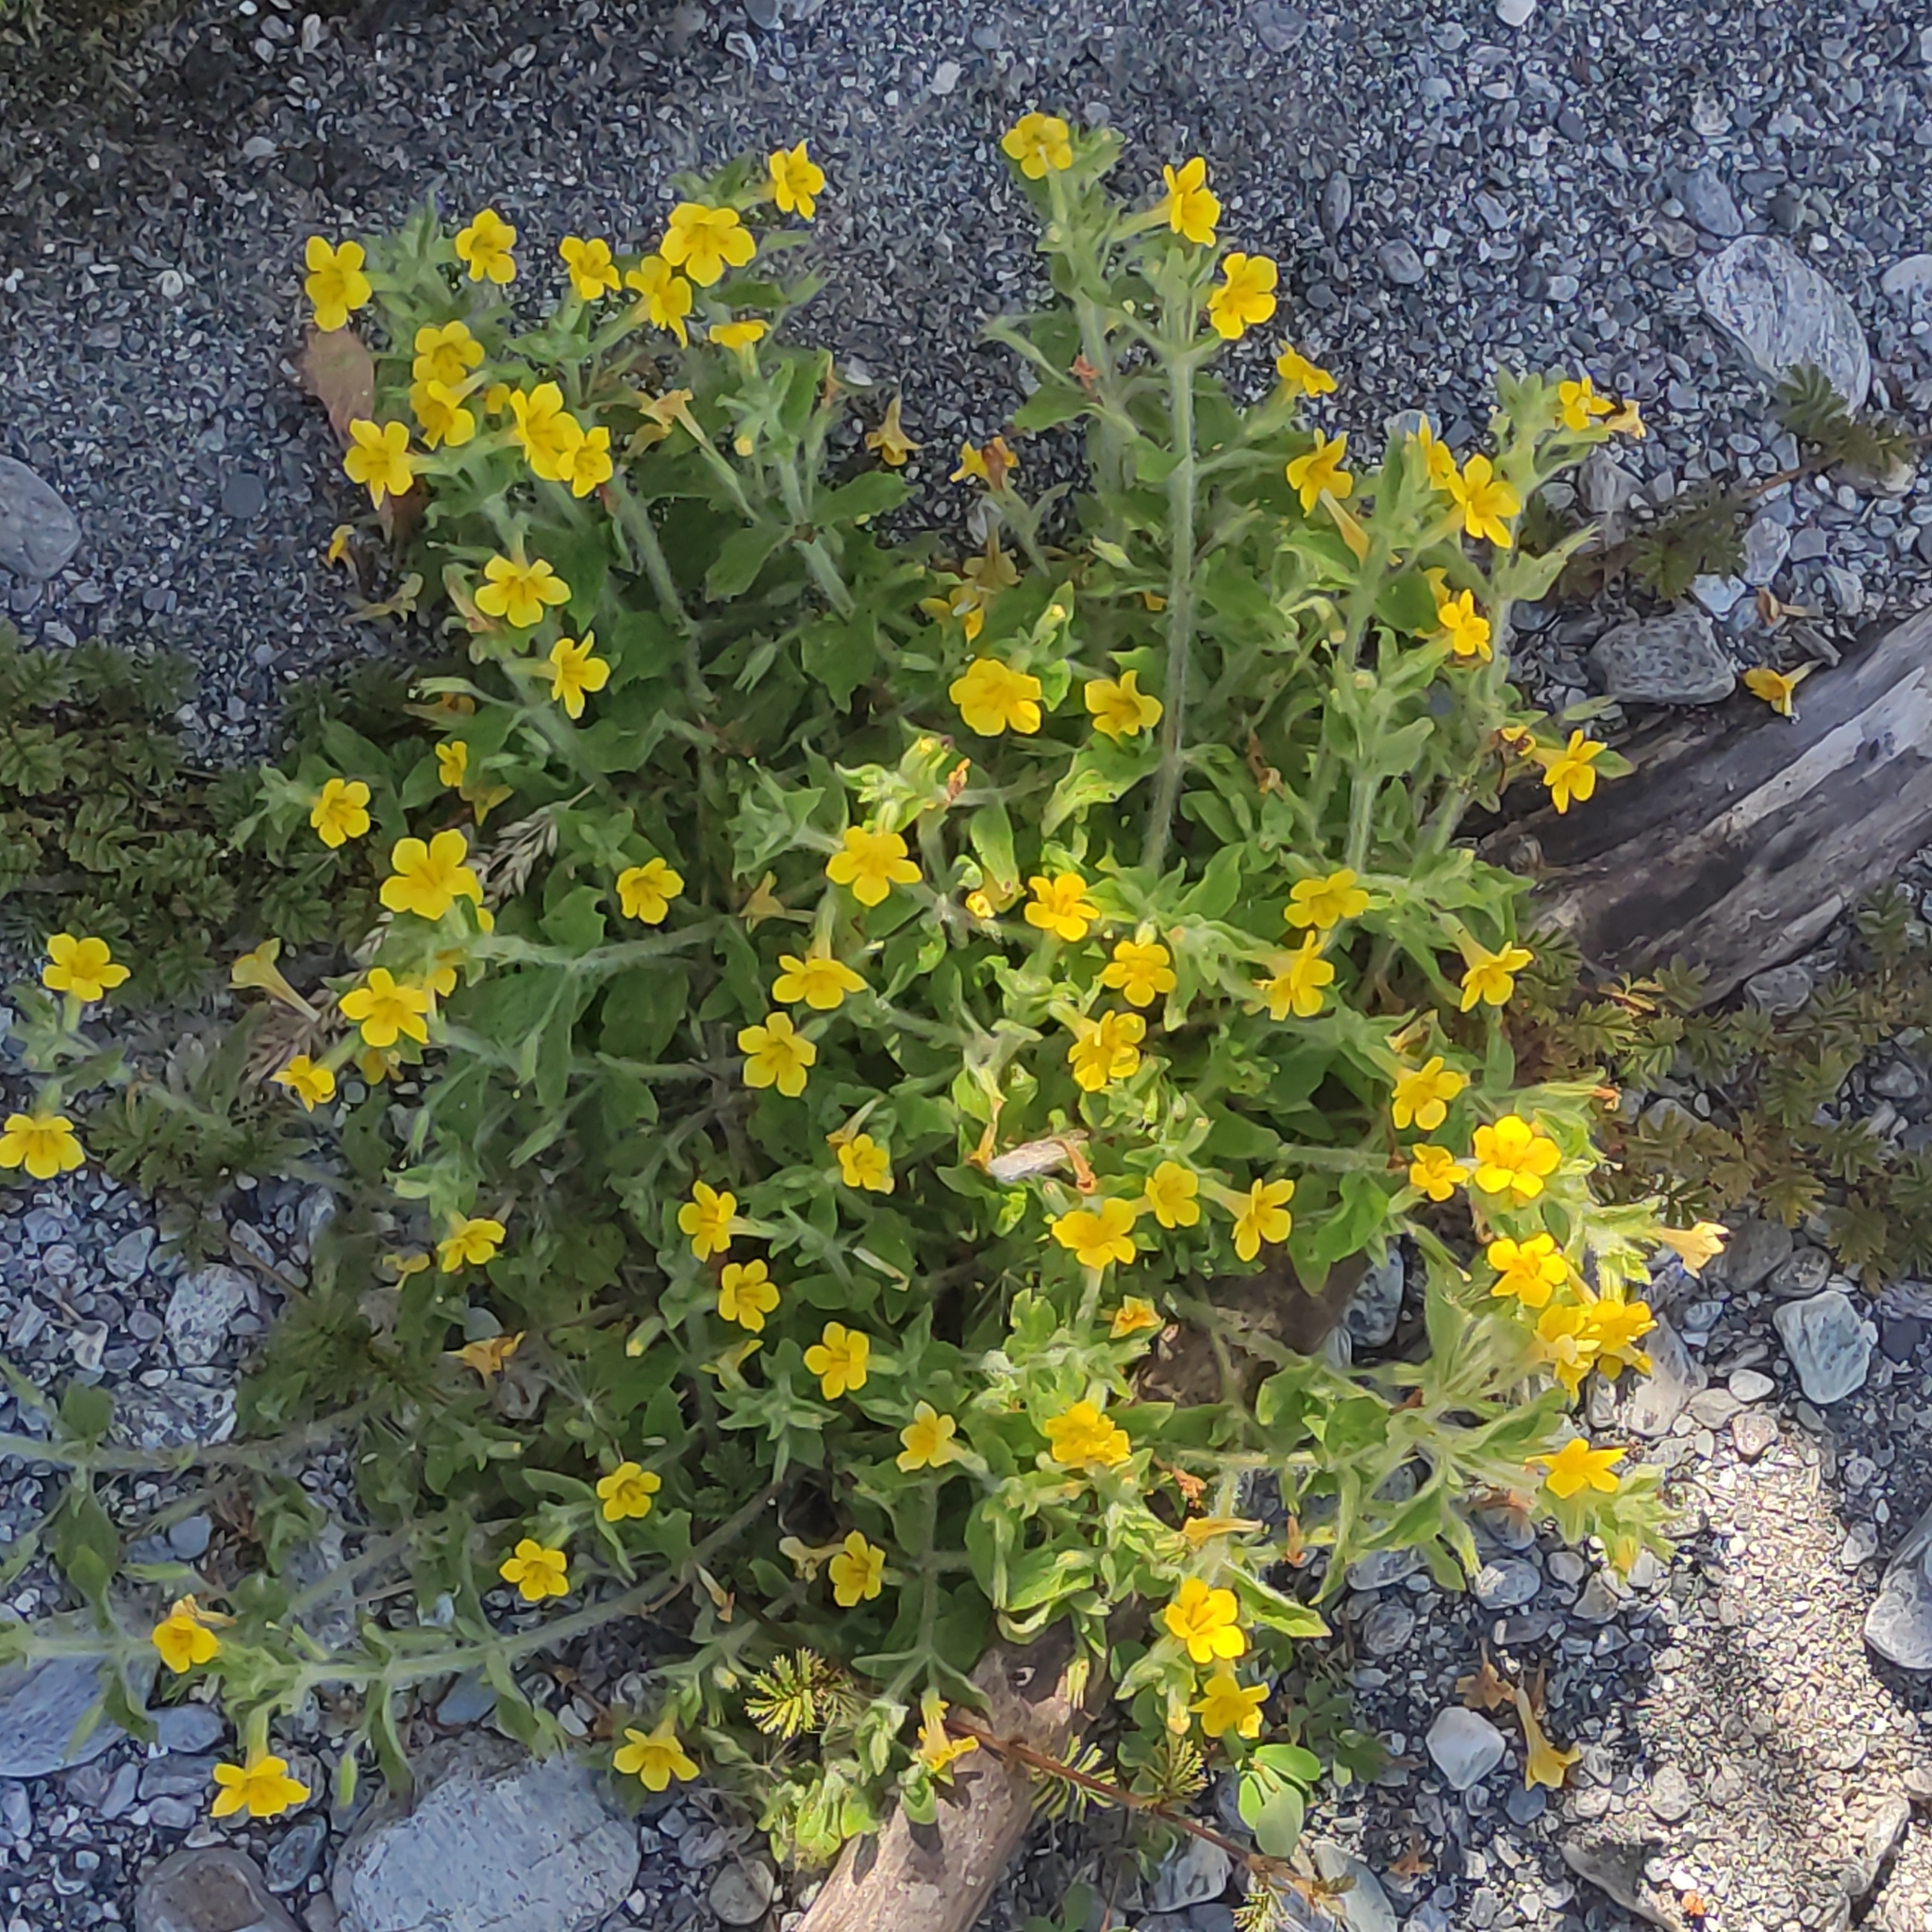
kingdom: Plantae
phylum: Tracheophyta
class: Magnoliopsida
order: Lamiales
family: Phrymaceae
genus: Erythranthe
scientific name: Erythranthe moschata
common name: Muskflower
